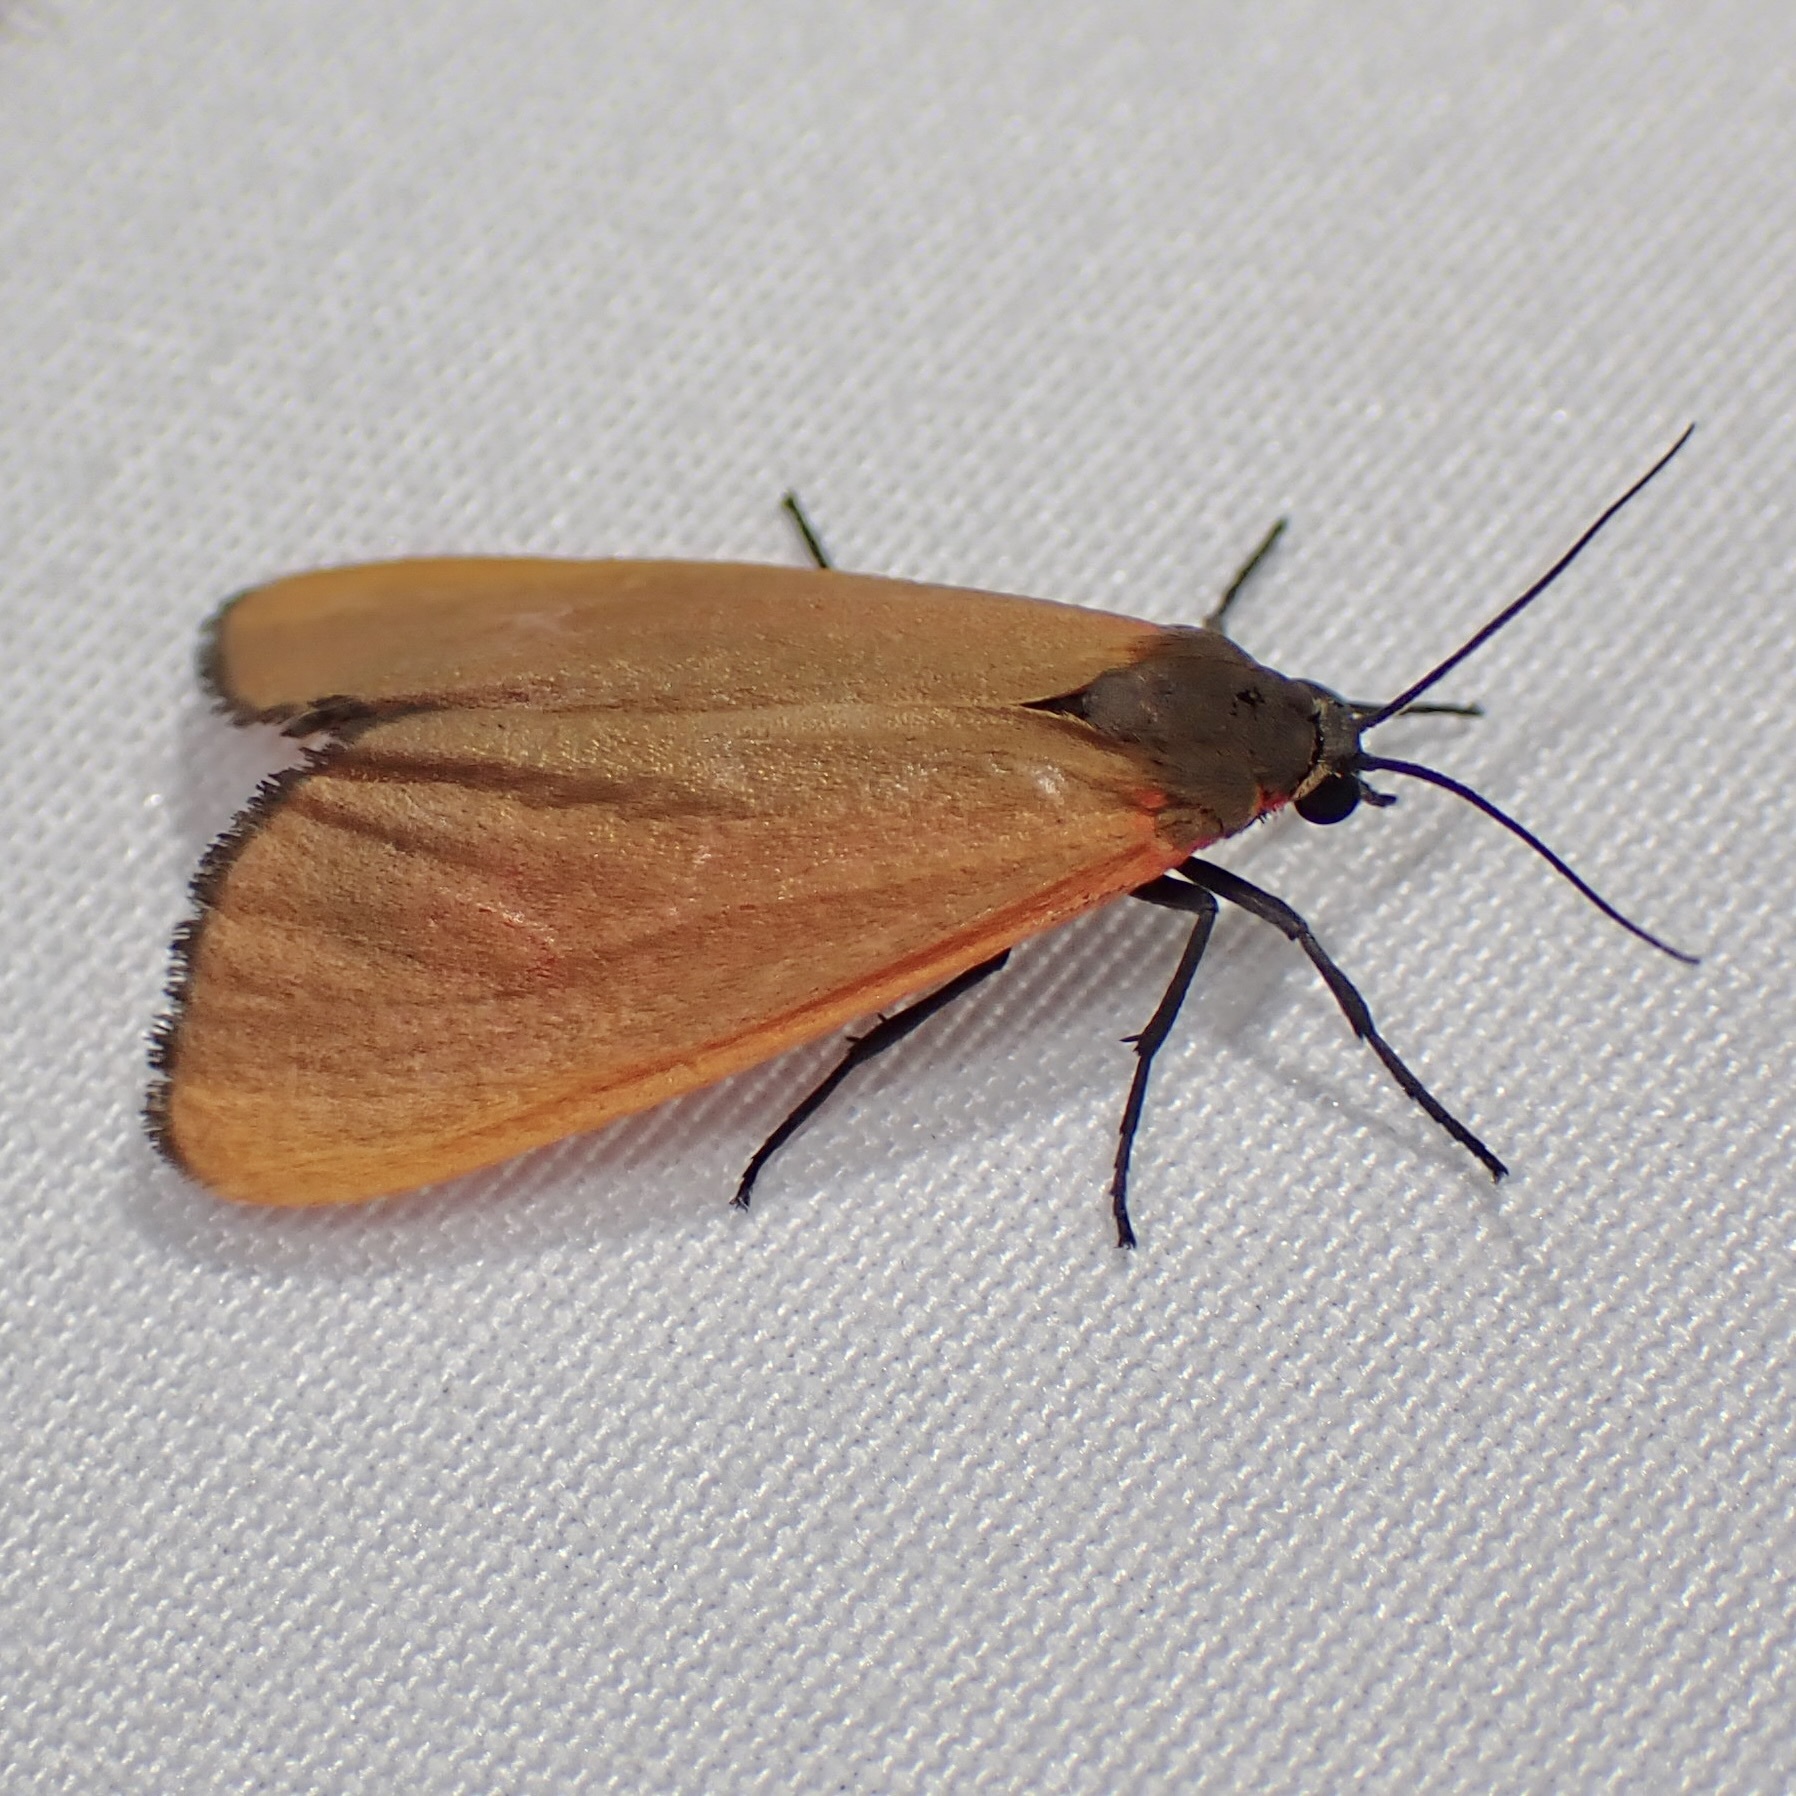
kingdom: Animalia
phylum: Arthropoda
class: Insecta
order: Lepidoptera
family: Erebidae
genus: Virbia
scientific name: Virbia ostenta
